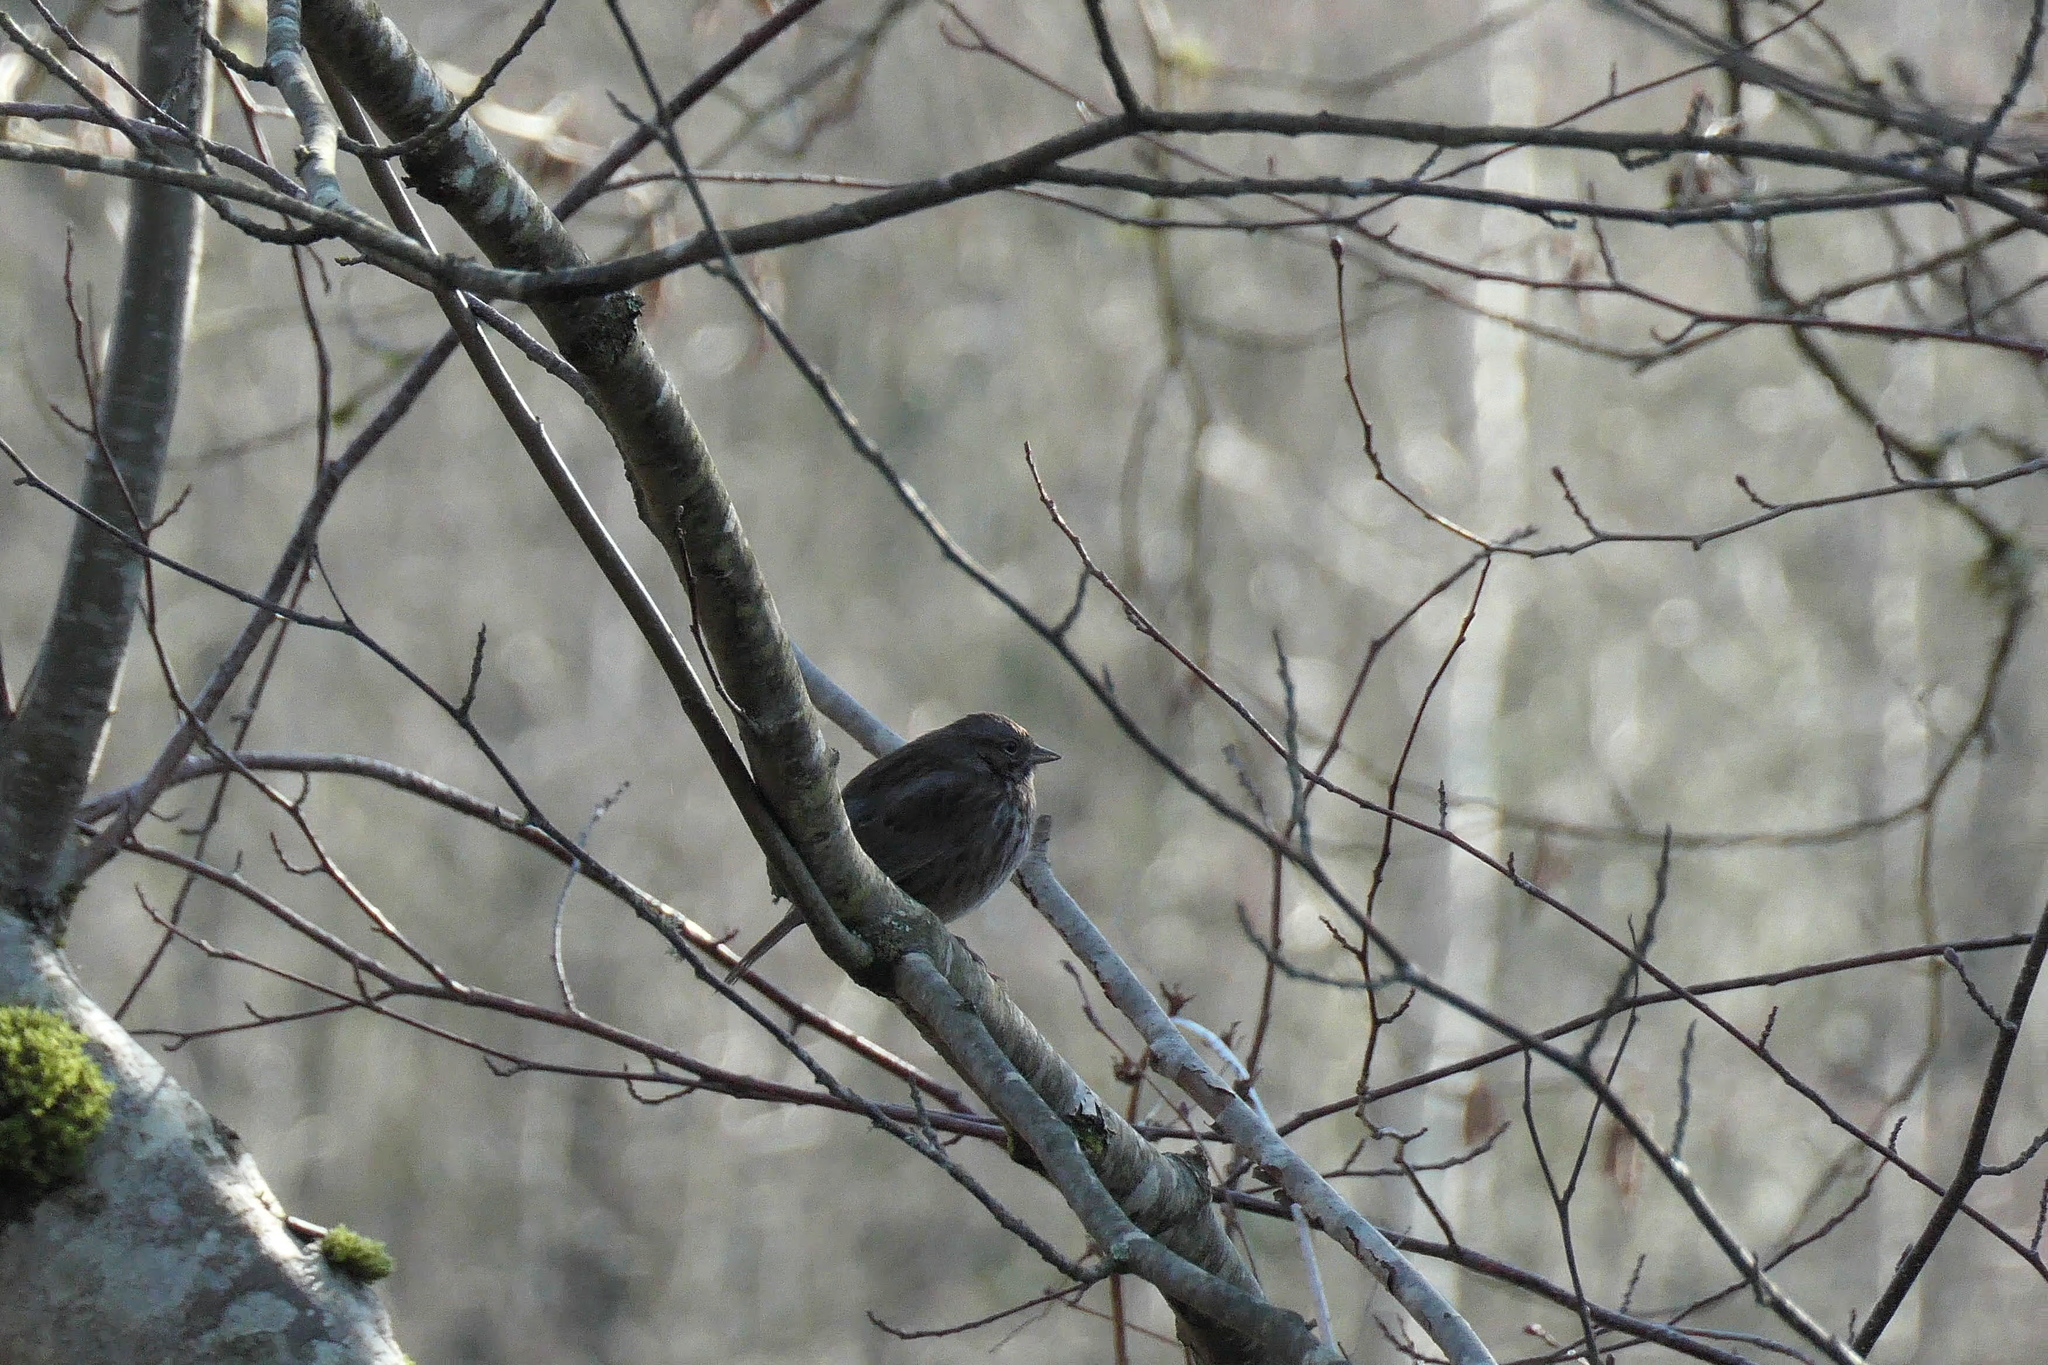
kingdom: Animalia
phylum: Chordata
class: Aves
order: Passeriformes
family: Passerellidae
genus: Melospiza
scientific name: Melospiza melodia
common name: Song sparrow
